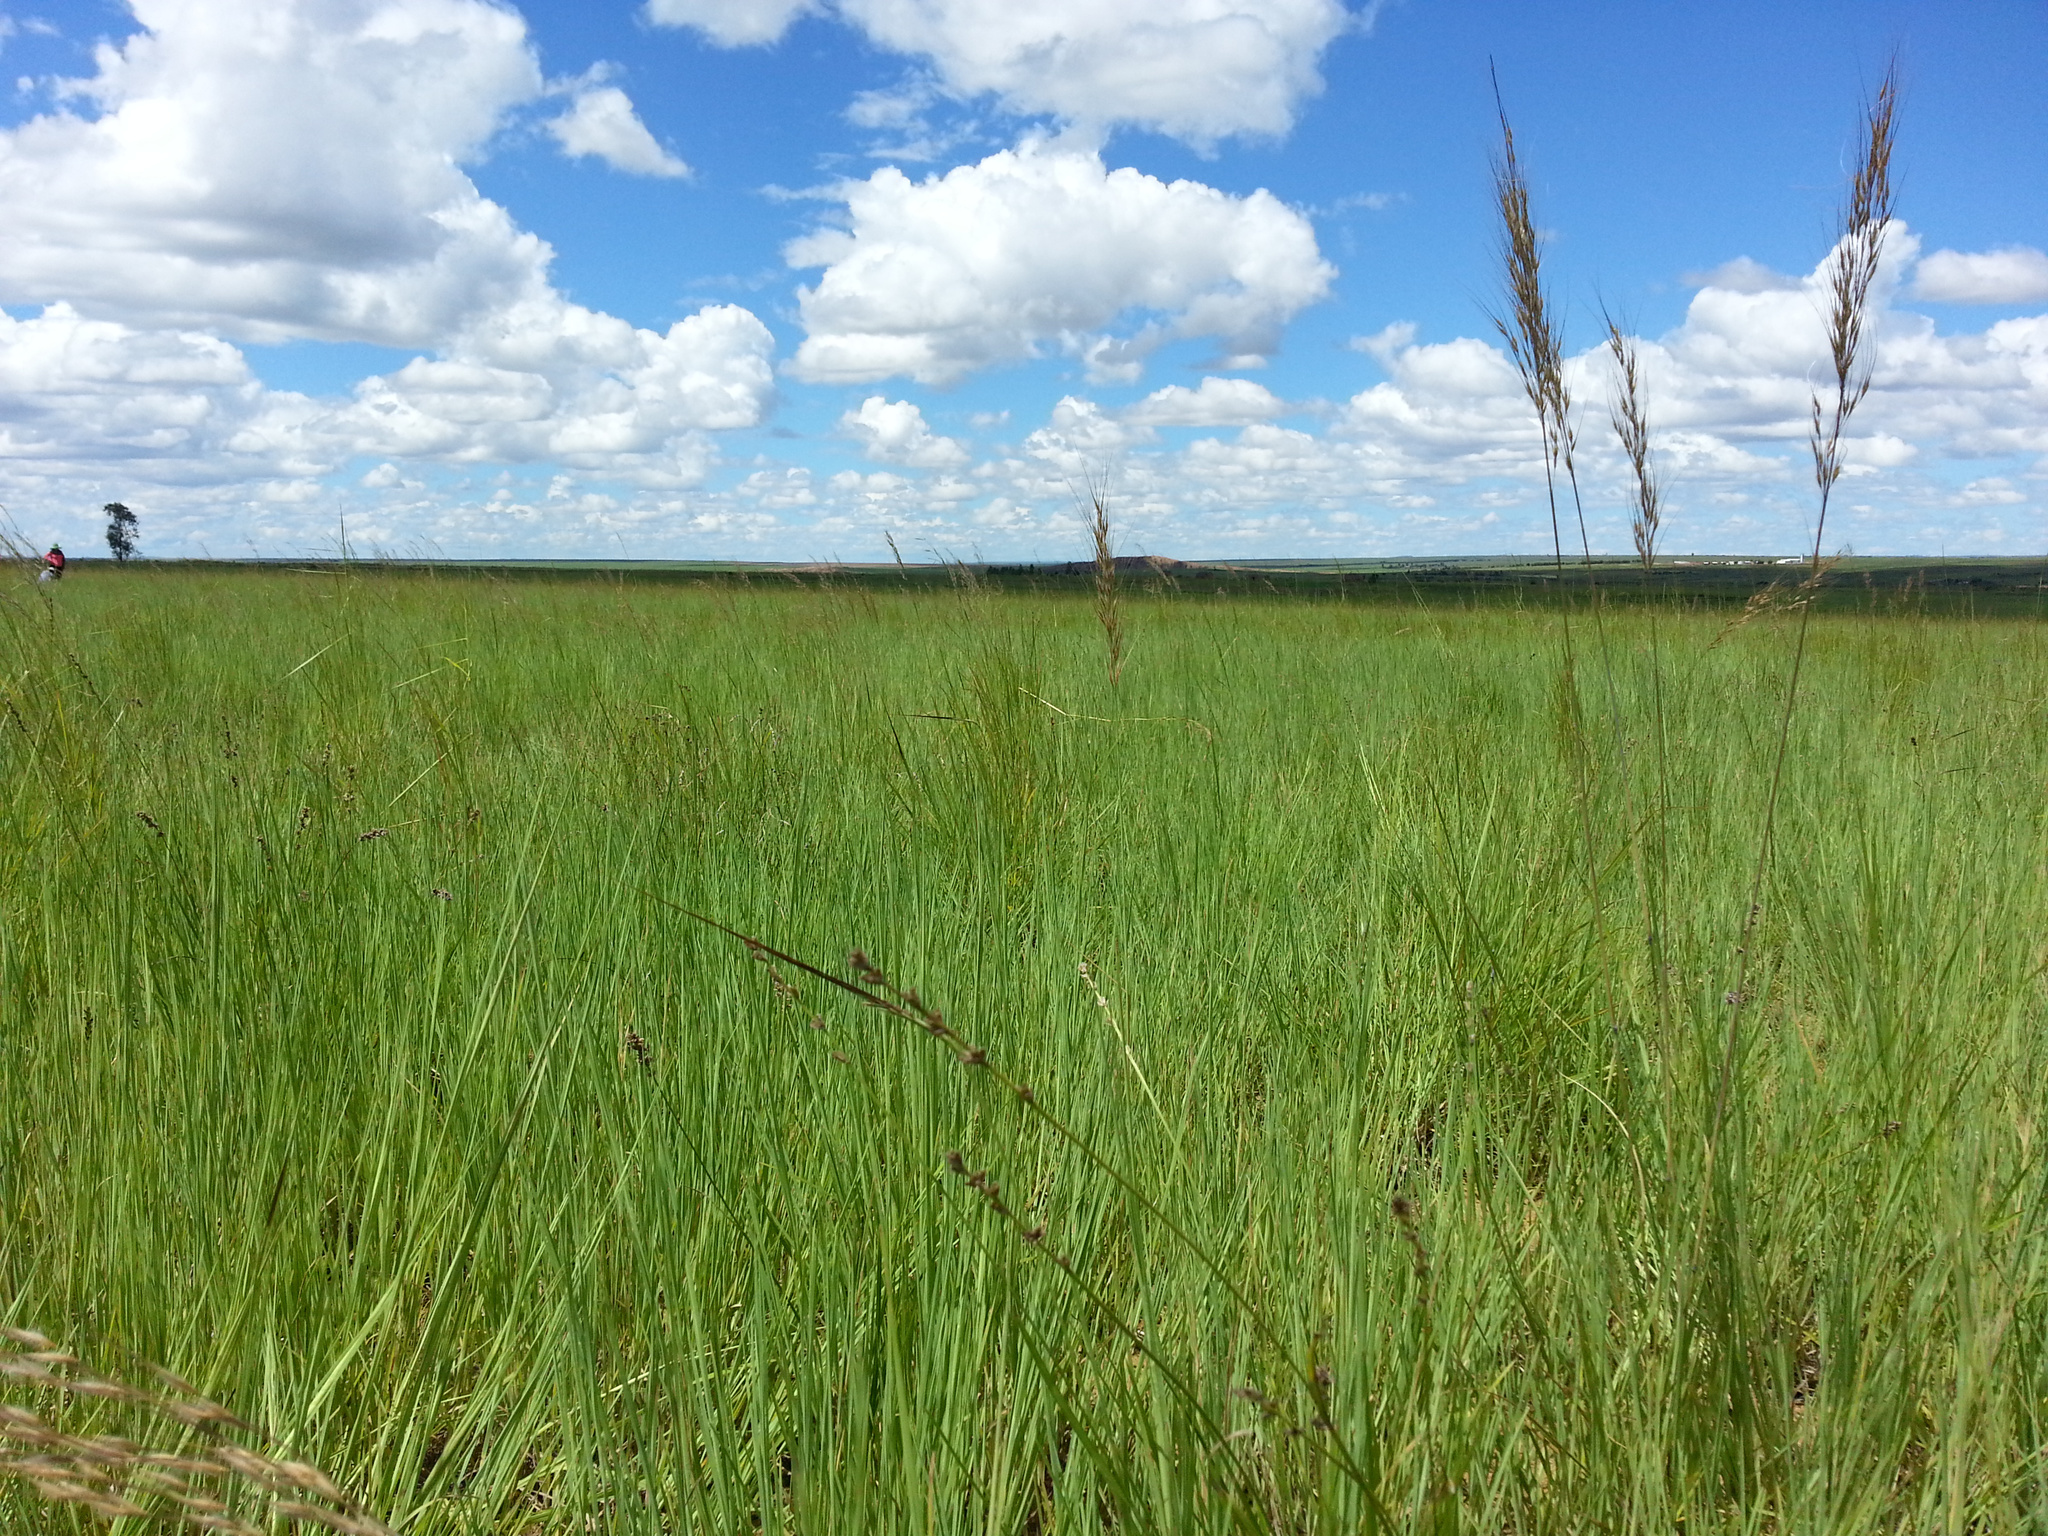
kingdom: Plantae
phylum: Tracheophyta
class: Liliopsida
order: Poales
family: Poaceae
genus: Loudetia
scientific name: Loudetia simplex
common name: Common russet grass
